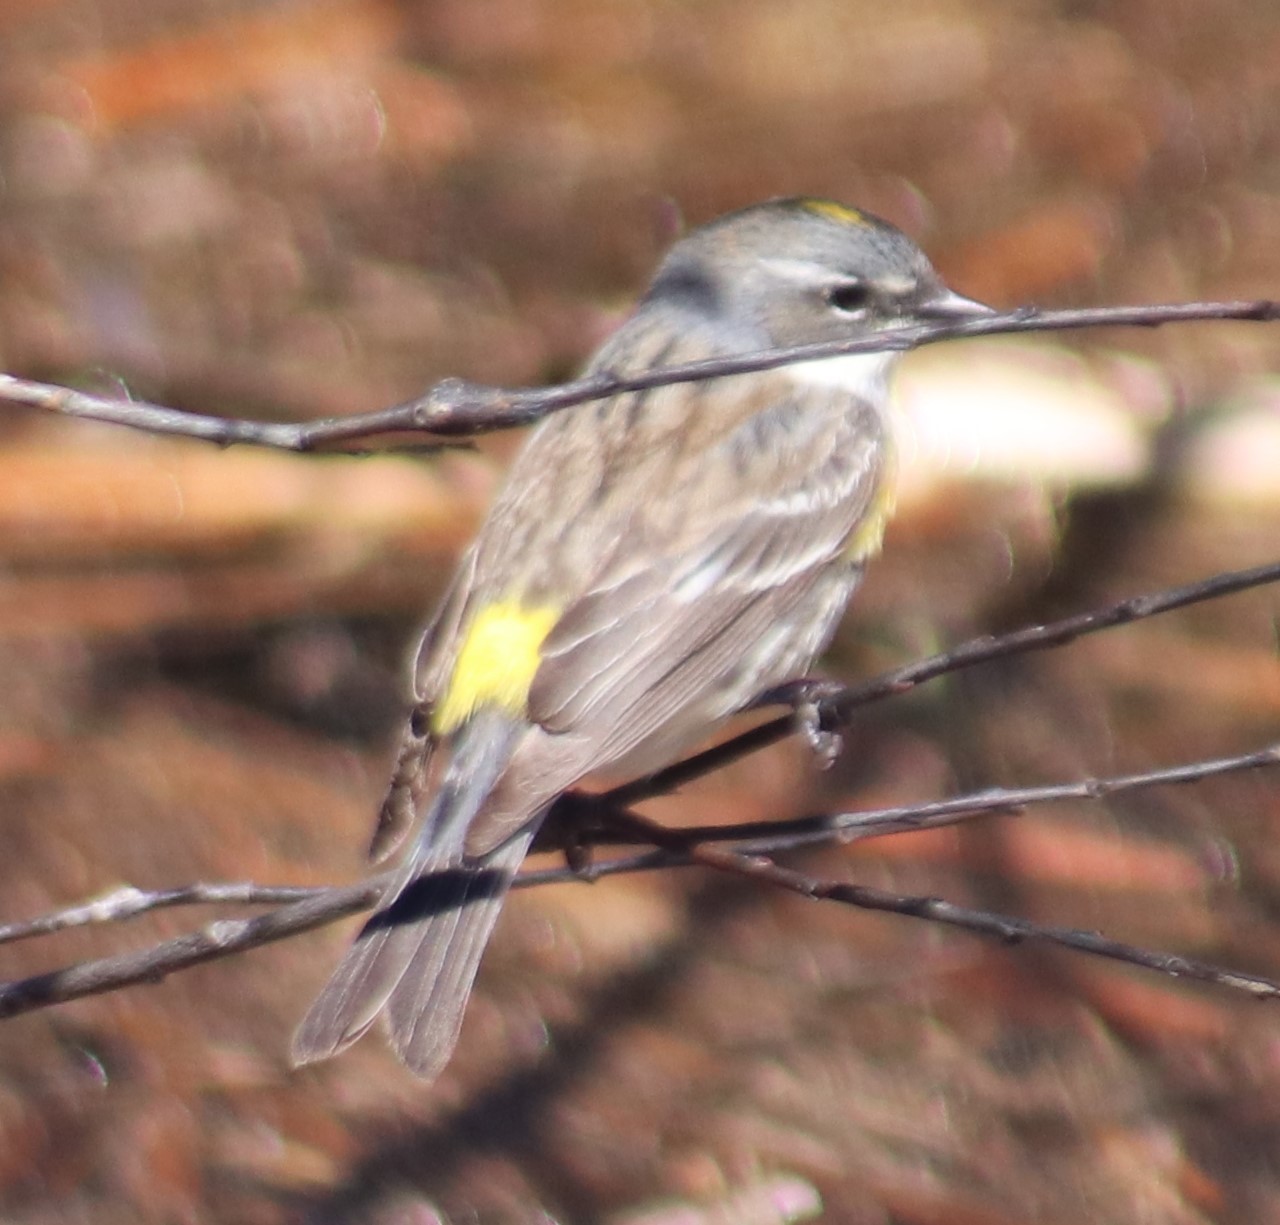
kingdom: Animalia
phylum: Chordata
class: Aves
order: Passeriformes
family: Parulidae
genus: Setophaga
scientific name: Setophaga coronata
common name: Myrtle warbler
